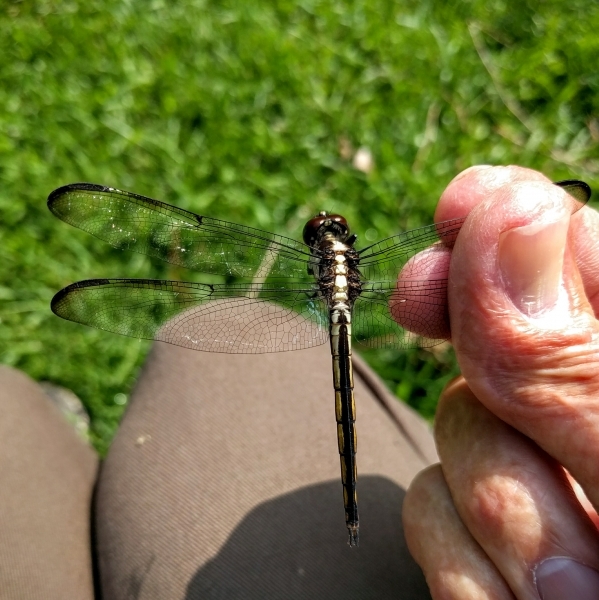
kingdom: Animalia
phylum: Arthropoda
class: Insecta
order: Odonata
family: Libellulidae
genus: Libellula
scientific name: Libellula incesta
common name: Slaty skimmer
